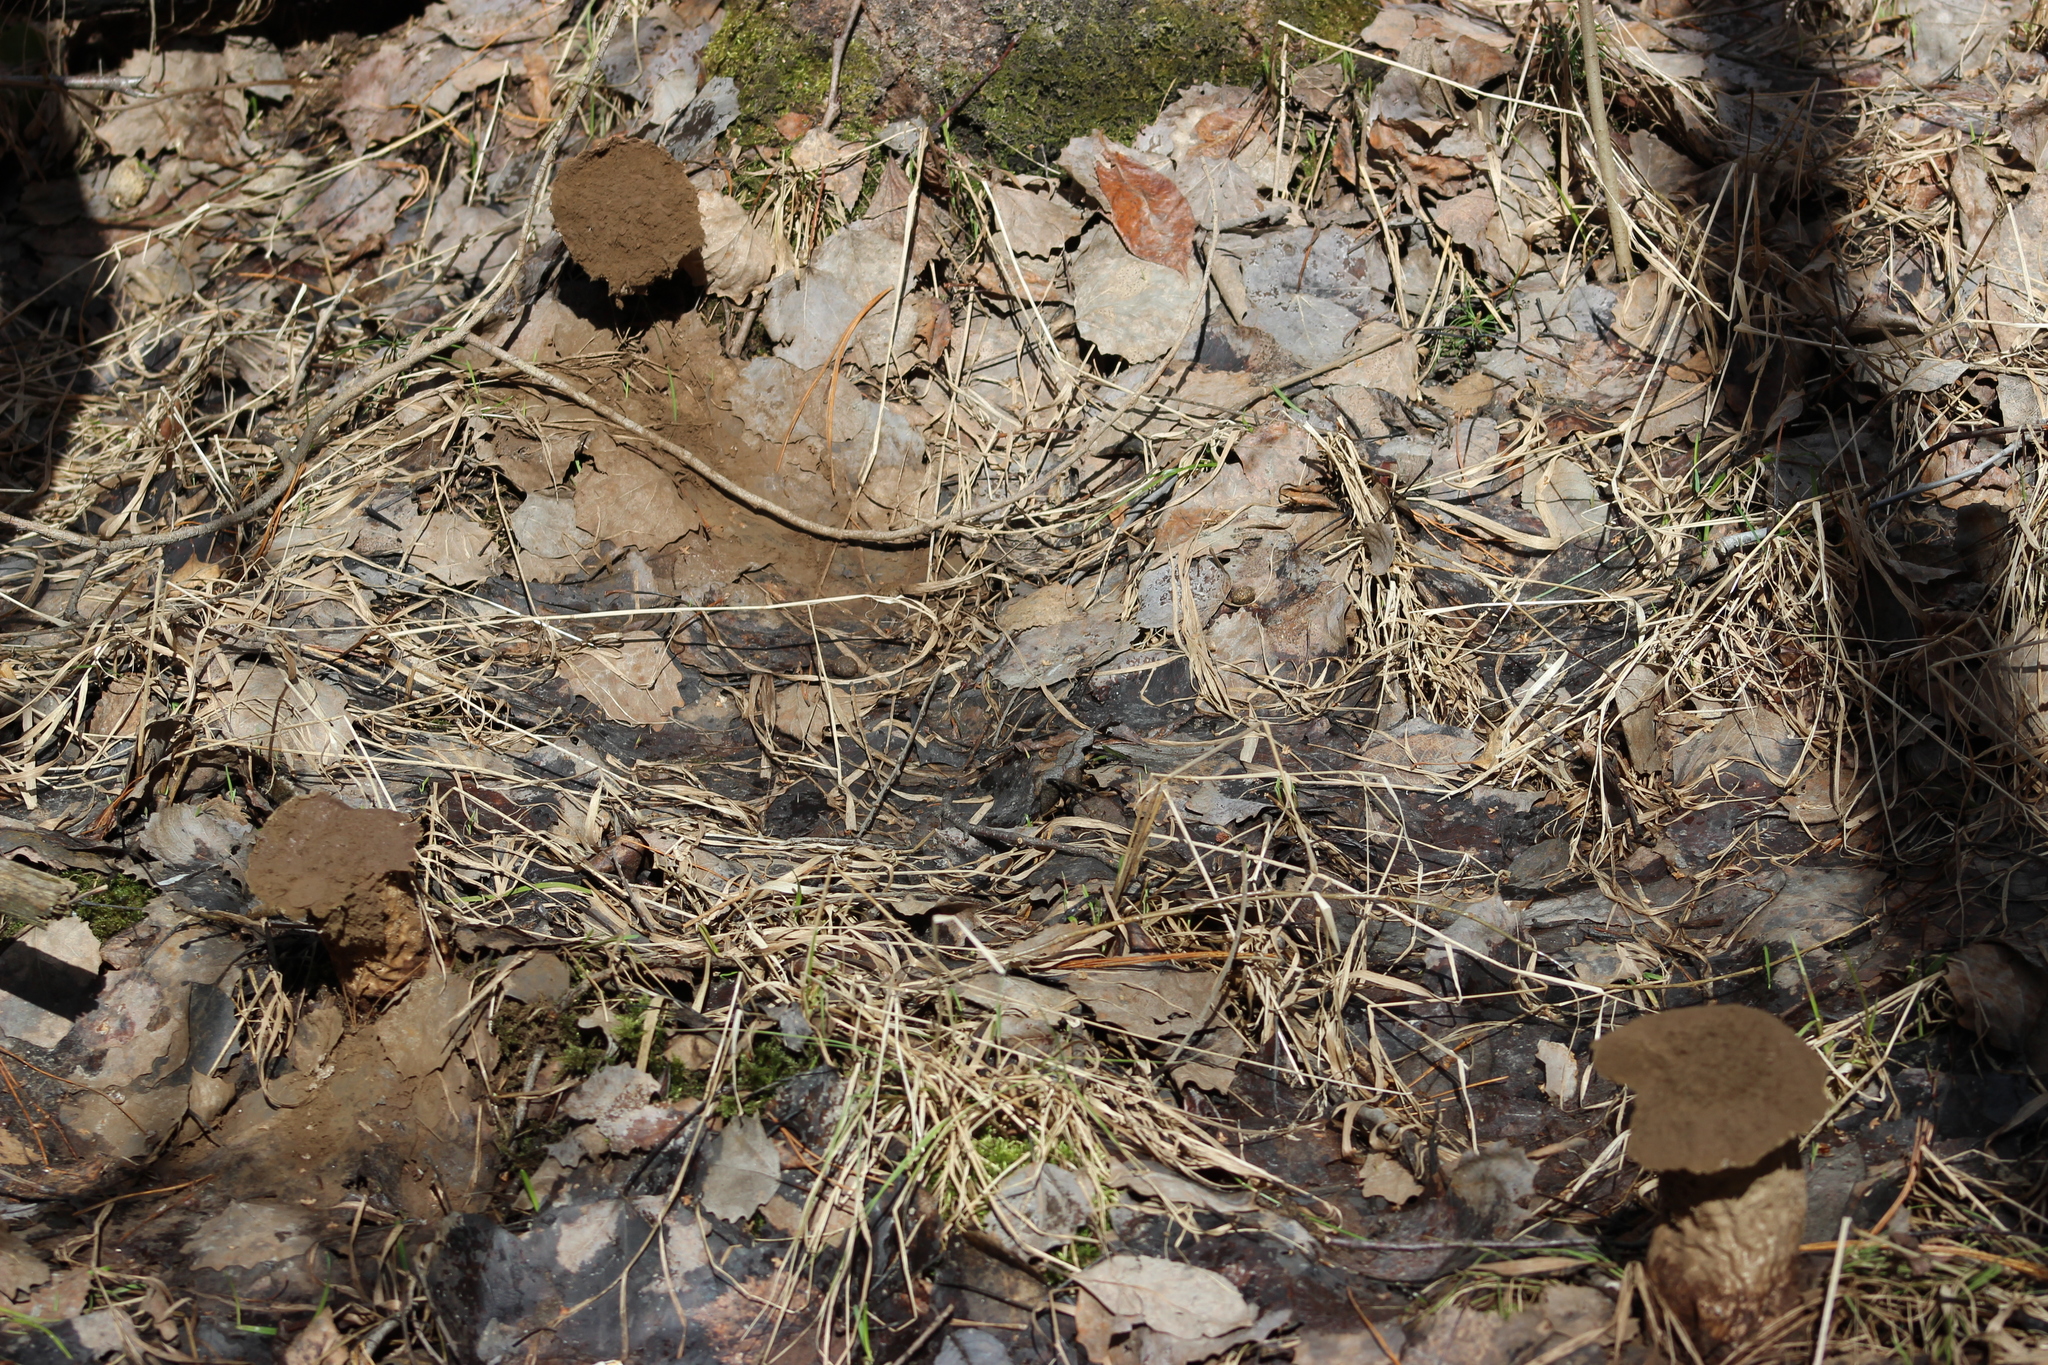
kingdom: Fungi
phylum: Basidiomycota
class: Agaricomycetes
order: Agaricales
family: Lycoperdaceae
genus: Lycoperdon
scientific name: Lycoperdon excipuliforme
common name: Pestle puffball
